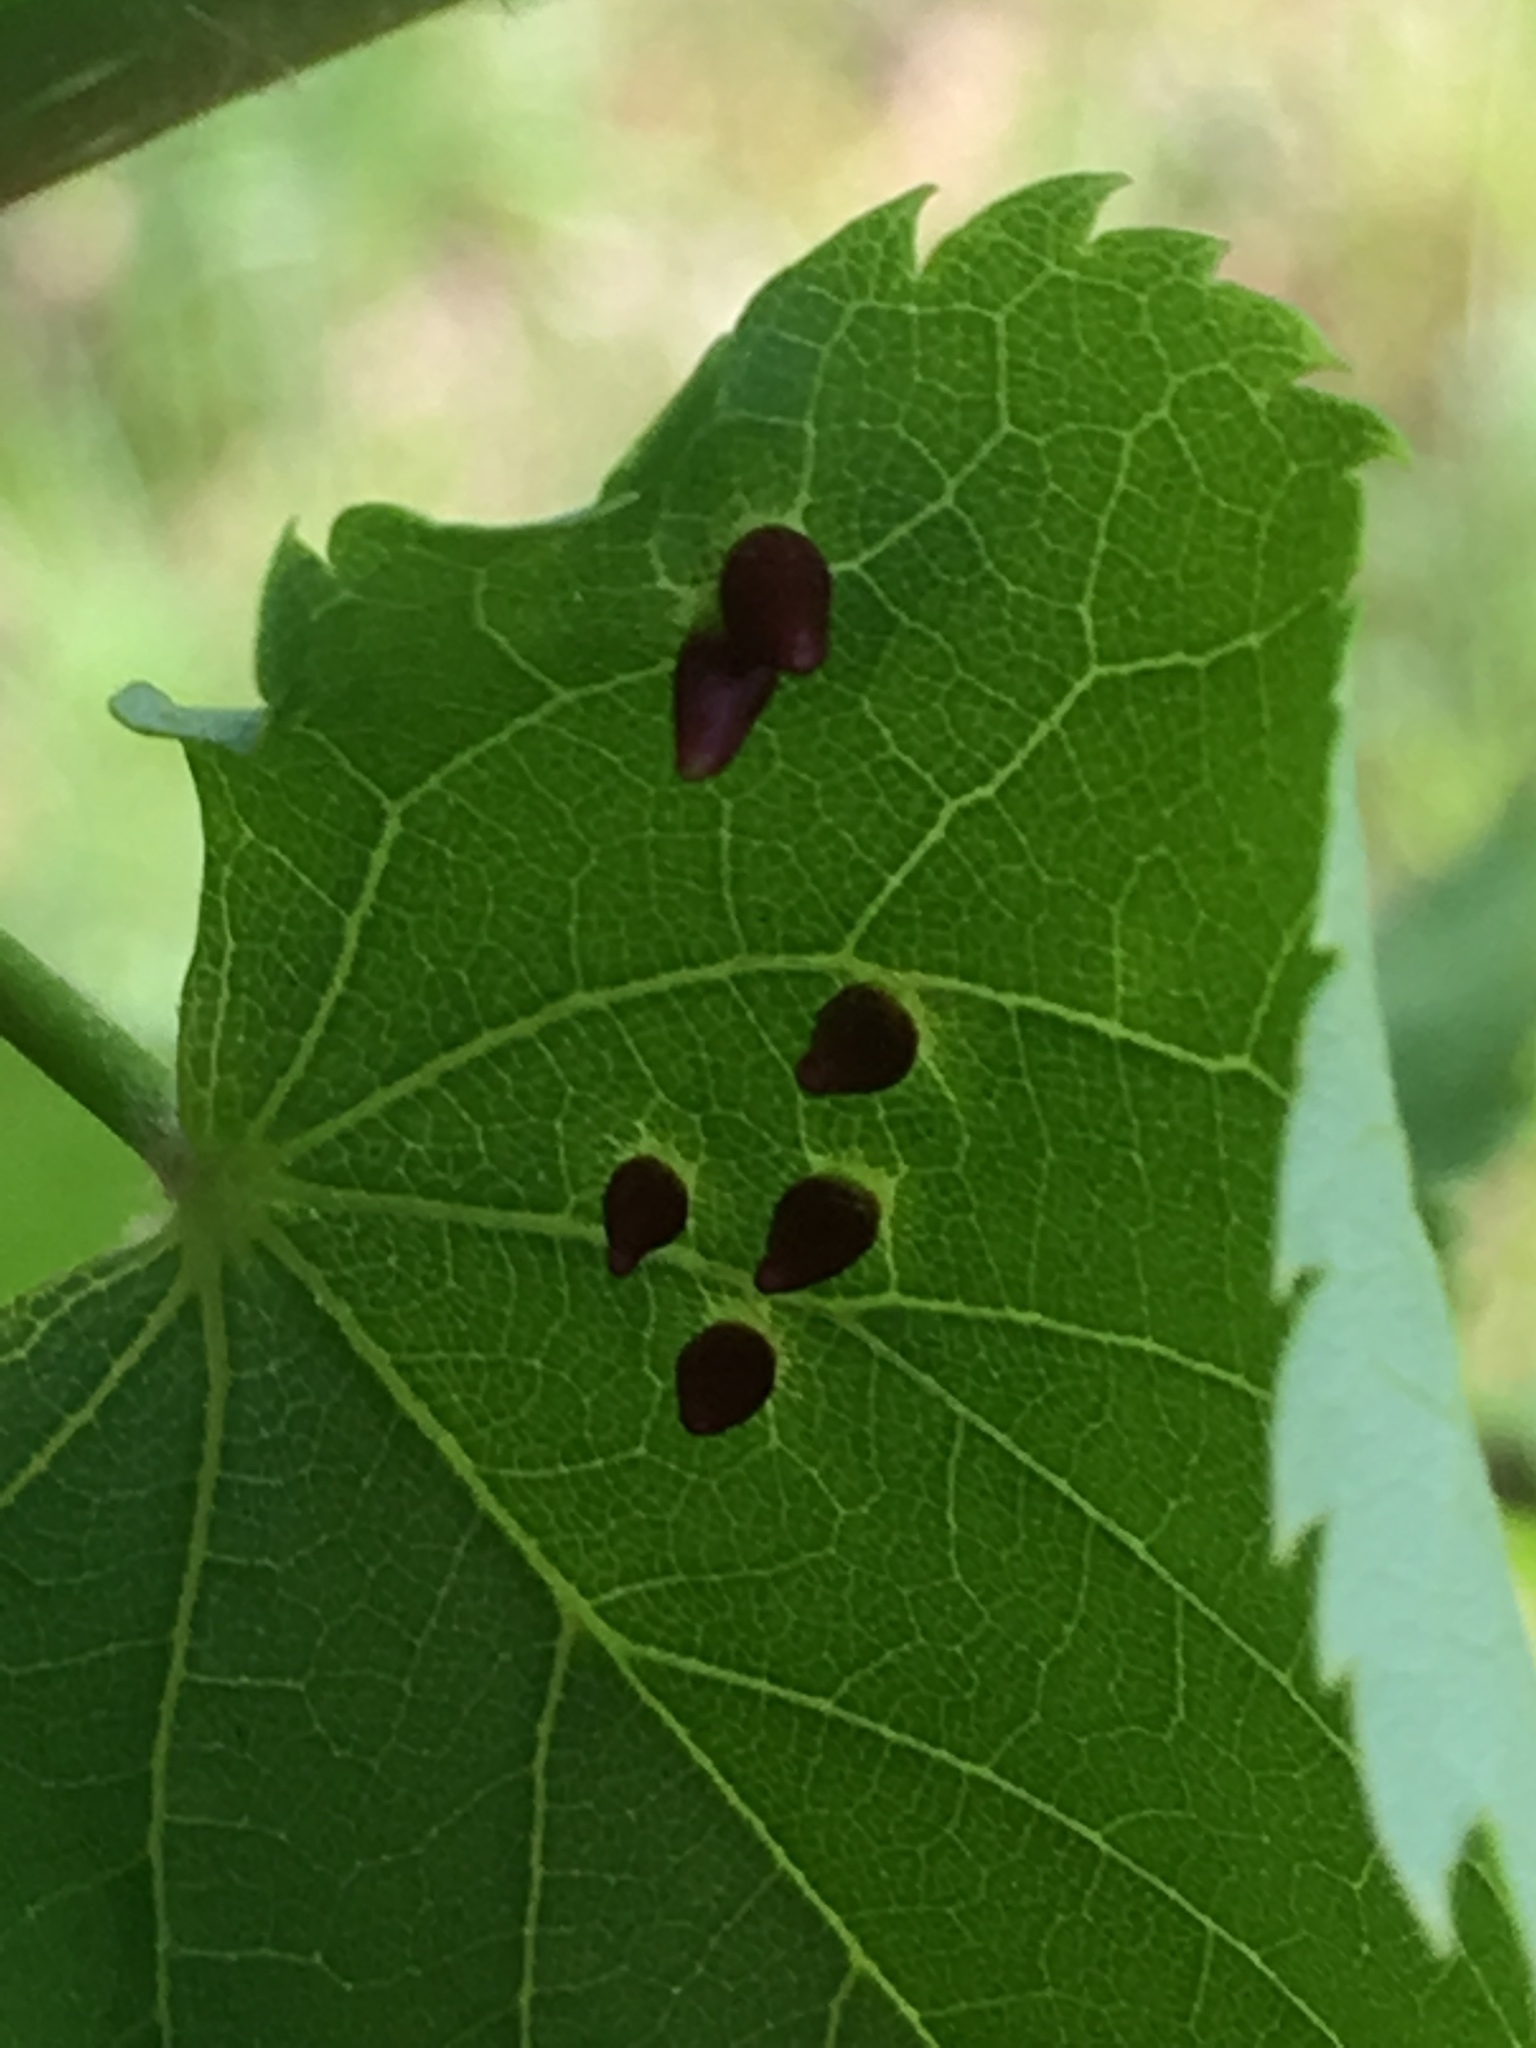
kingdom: Animalia
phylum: Arthropoda
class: Arachnida
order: Trombidiformes
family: Eriophyidae
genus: Eriophyes
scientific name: Eriophyes tiliae
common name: Red nail gall mite
